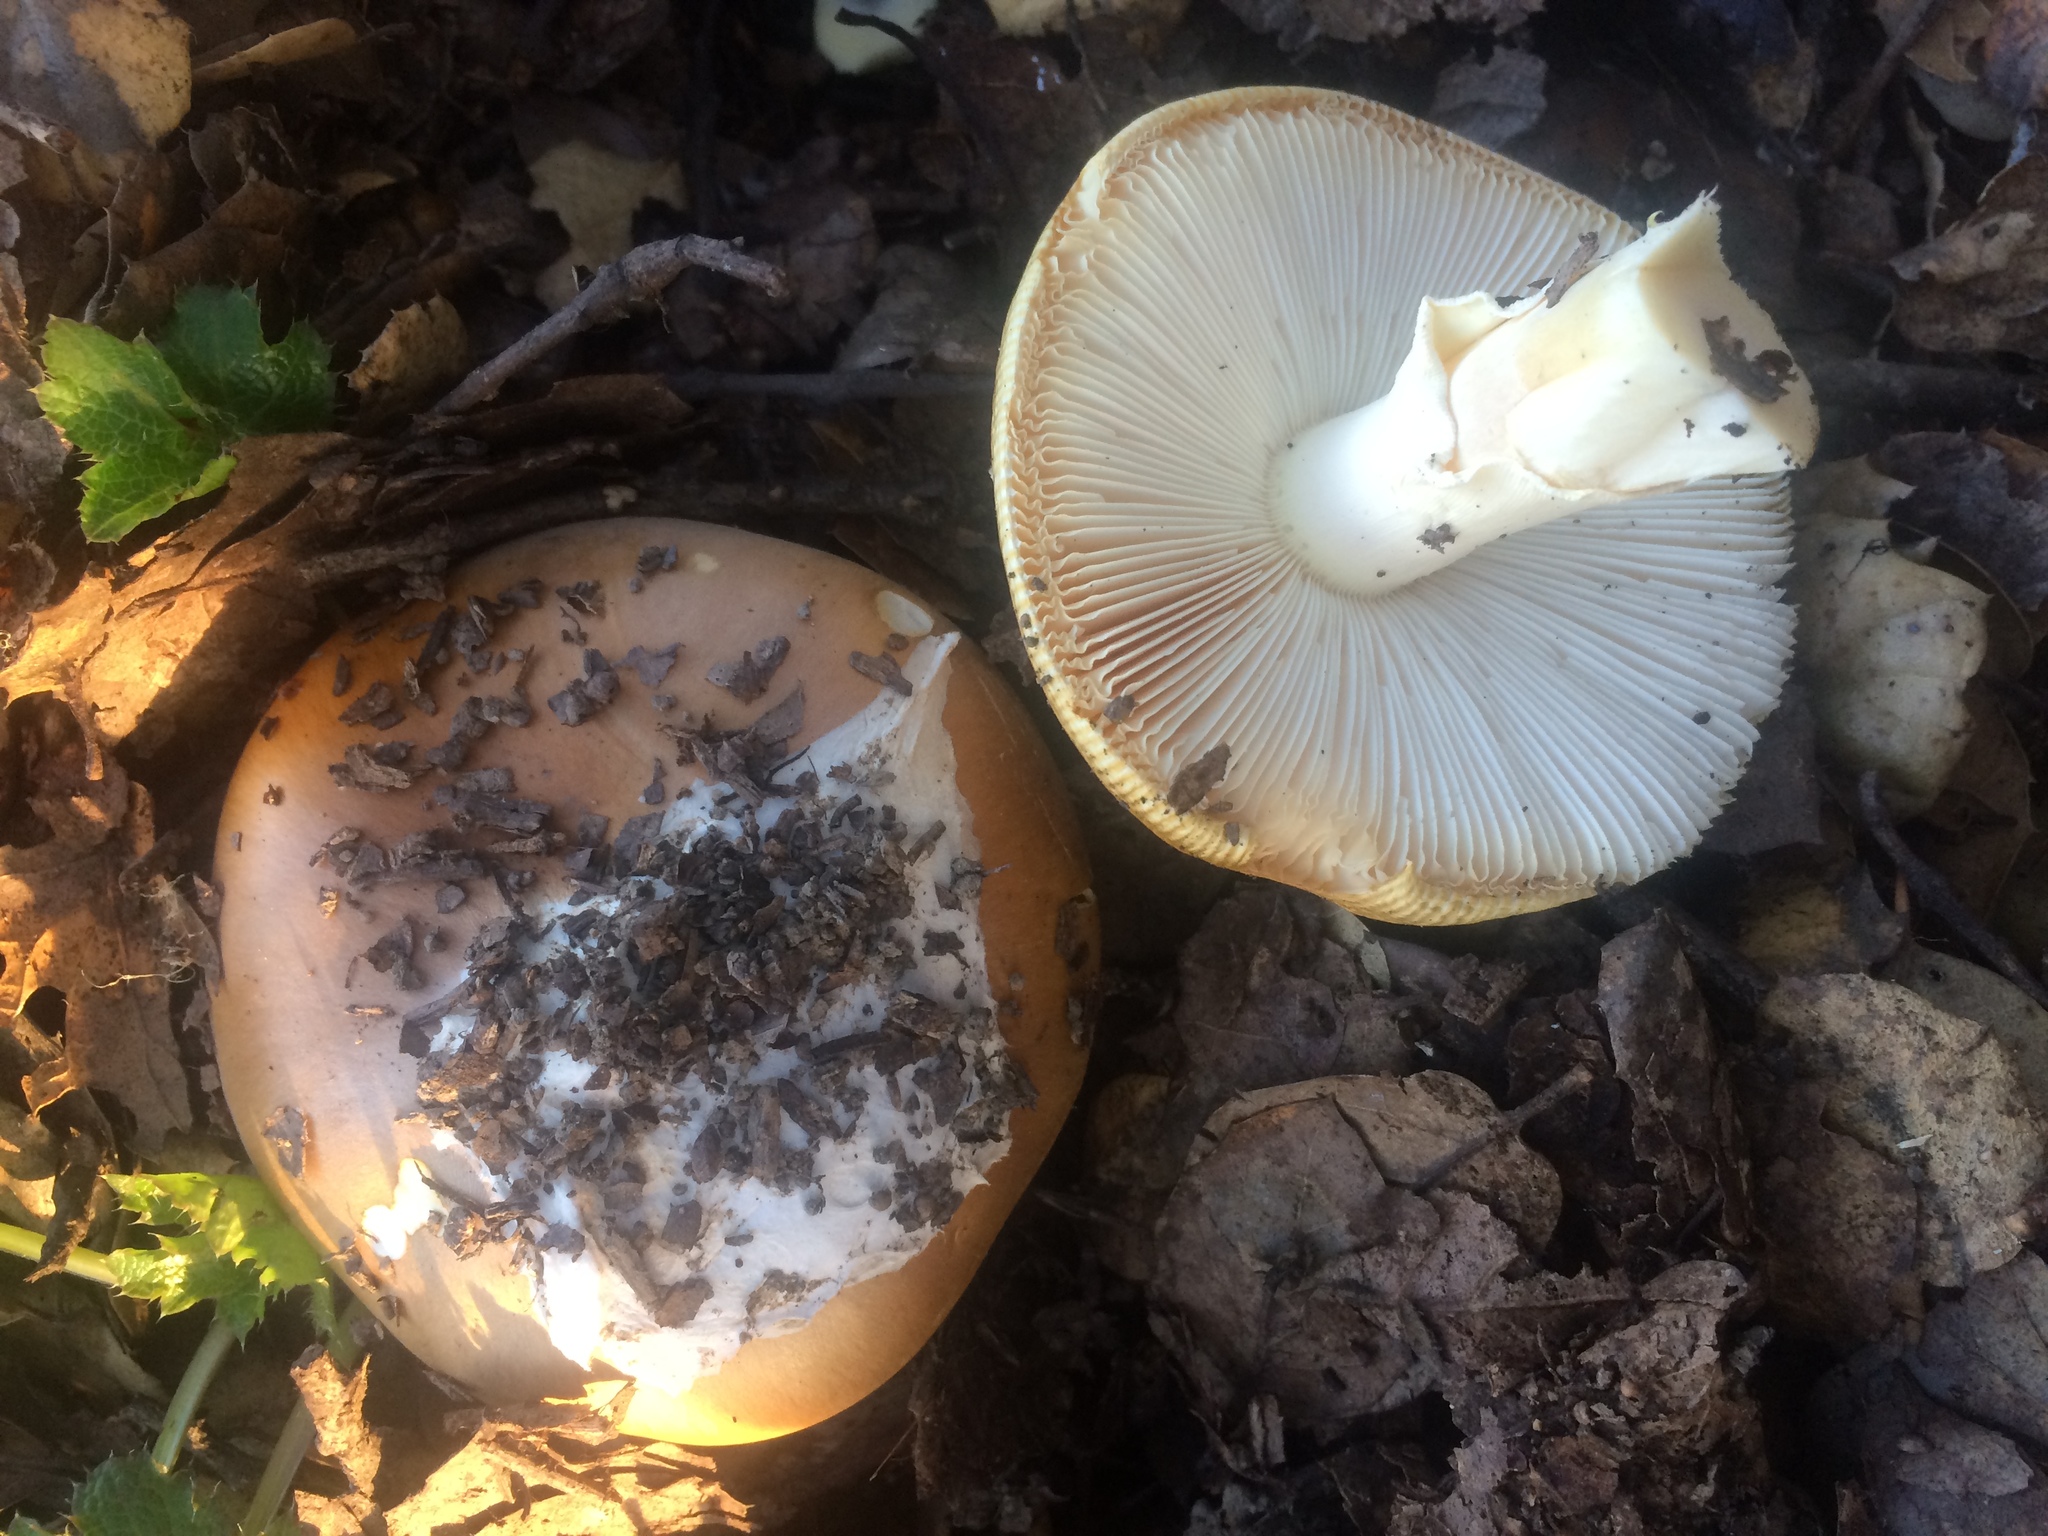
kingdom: Fungi
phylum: Basidiomycota
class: Agaricomycetes
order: Agaricales
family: Amanitaceae
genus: Amanita
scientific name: Amanita calyptroderma
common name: Coccora
